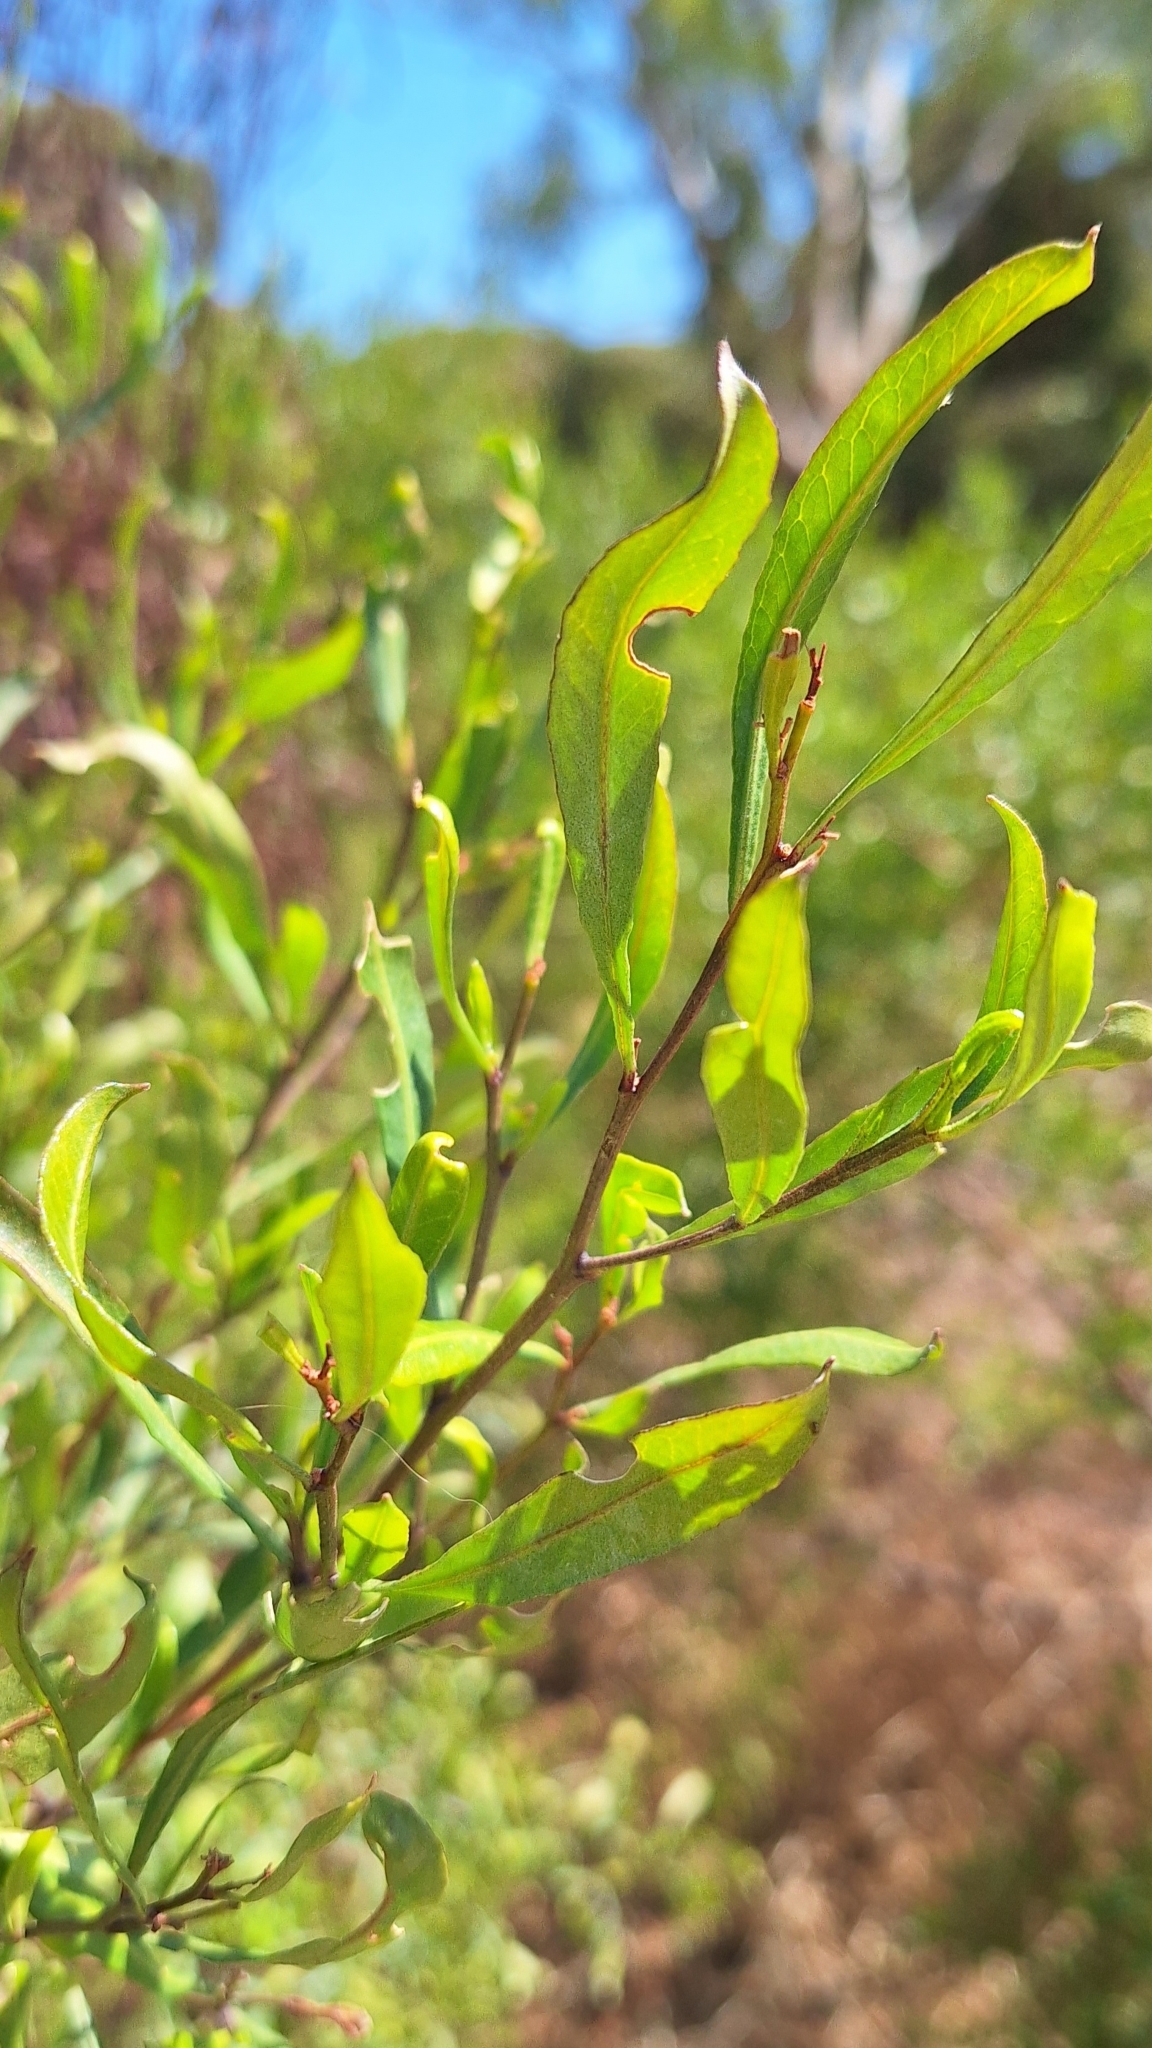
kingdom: Plantae
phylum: Tracheophyta
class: Magnoliopsida
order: Sapindales
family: Sapindaceae
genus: Dodonaea
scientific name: Dodonaea viscosa
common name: Hopbush
